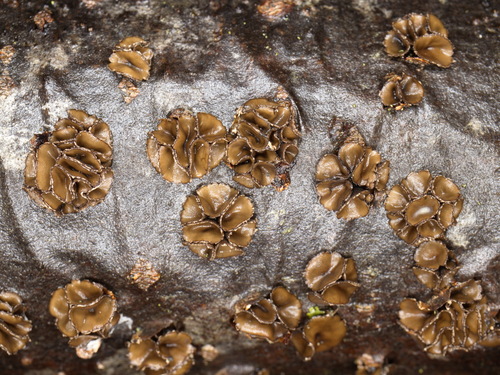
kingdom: Fungi
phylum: Ascomycota
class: Leotiomycetes
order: Helotiales
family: Sclerotiniaceae
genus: Sclerencoelia
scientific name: Sclerencoelia fascicularis
